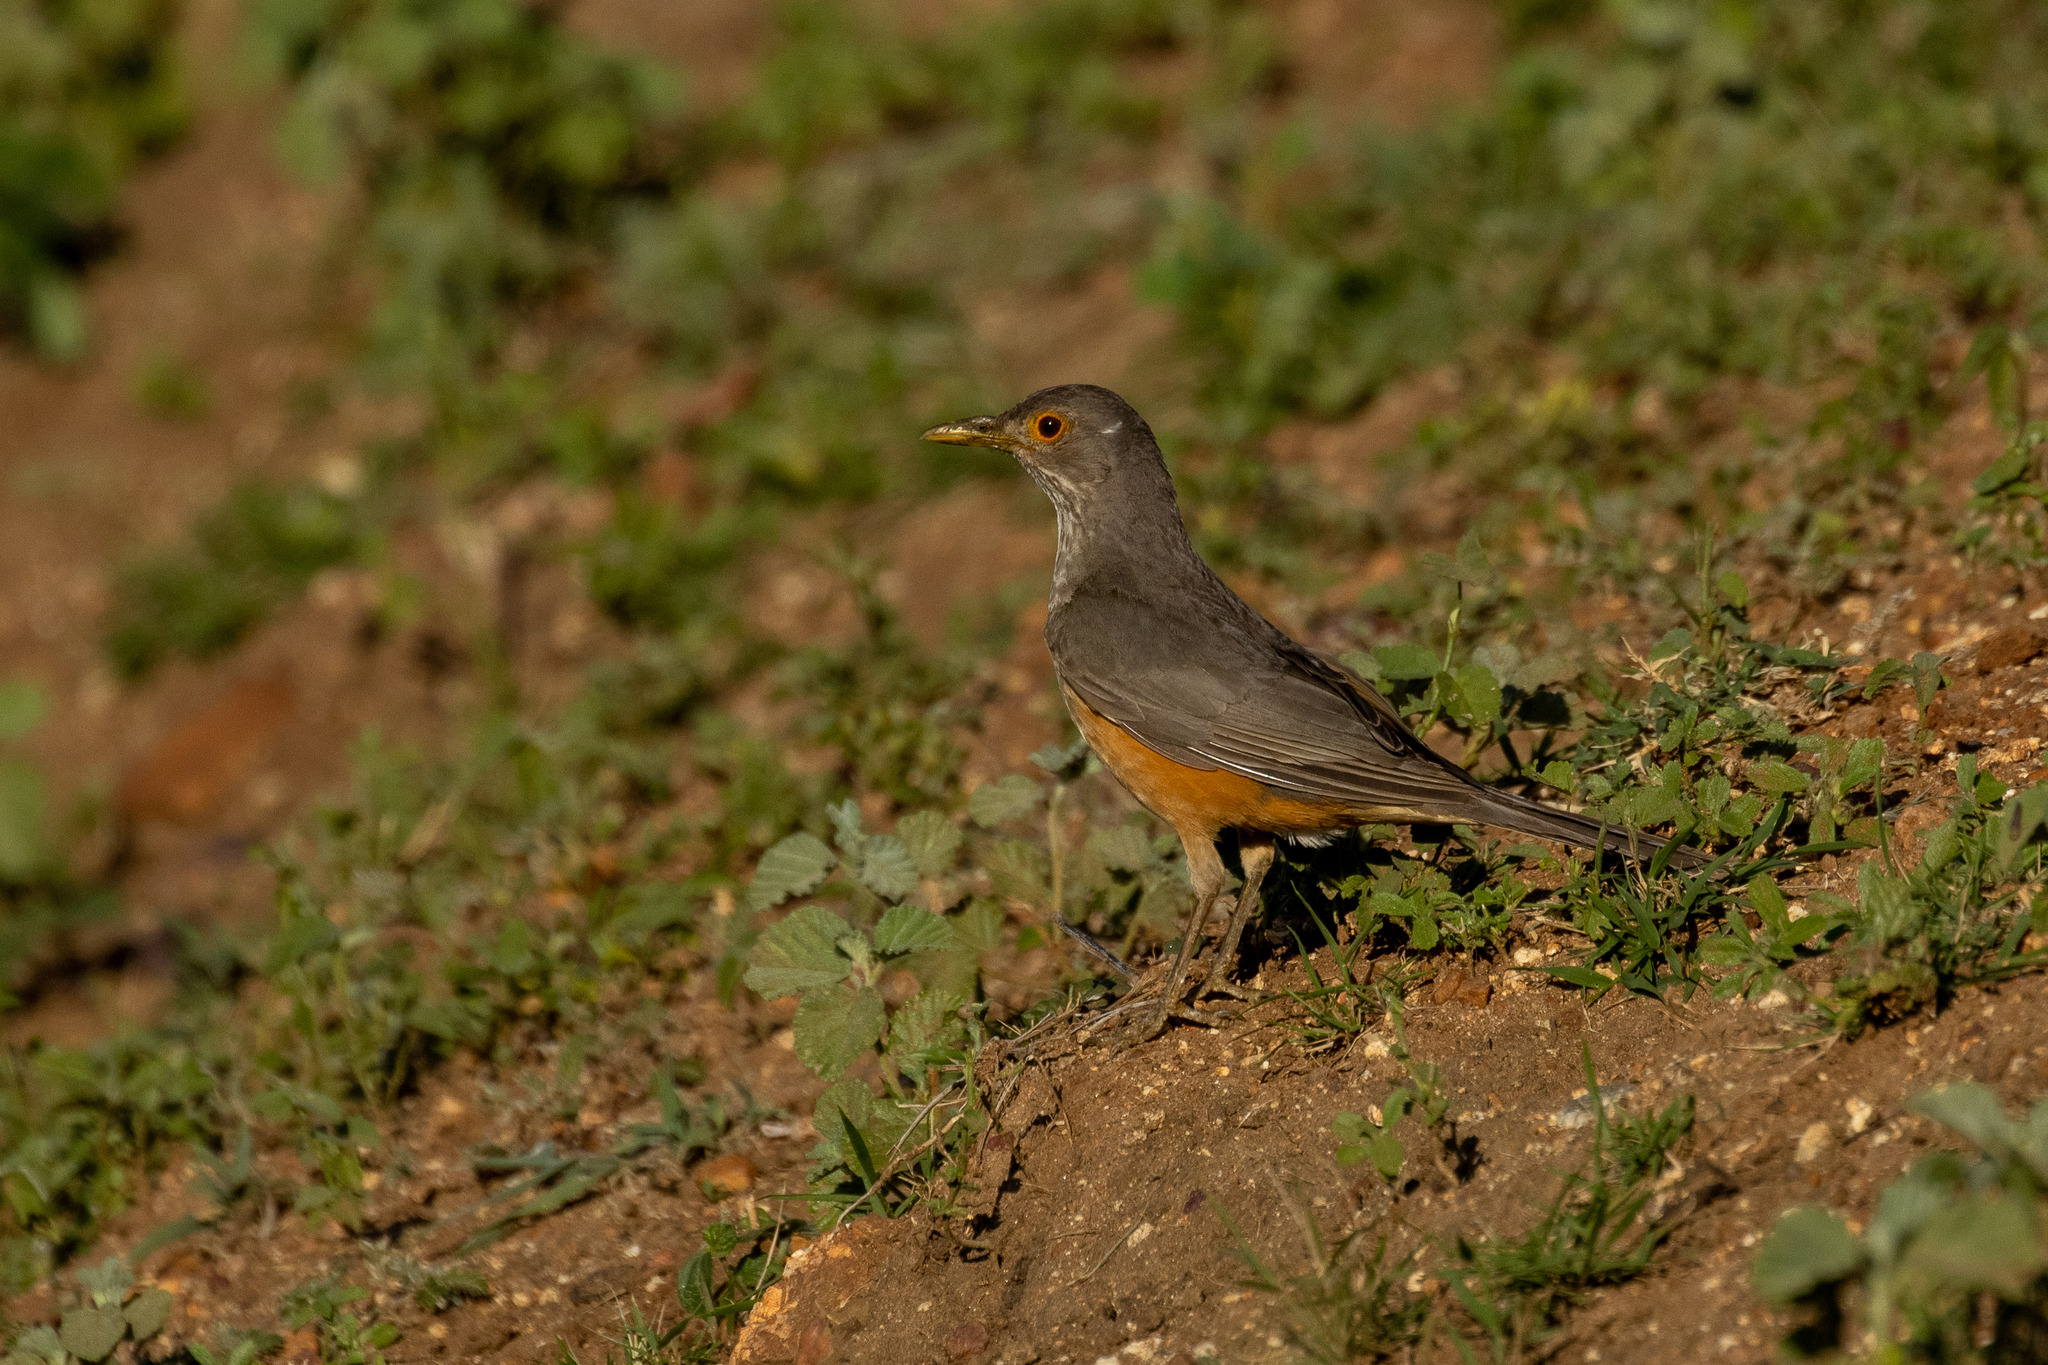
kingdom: Animalia
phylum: Chordata
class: Aves
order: Passeriformes
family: Turdidae
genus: Turdus
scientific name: Turdus rufiventris
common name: Rufous-bellied thrush
